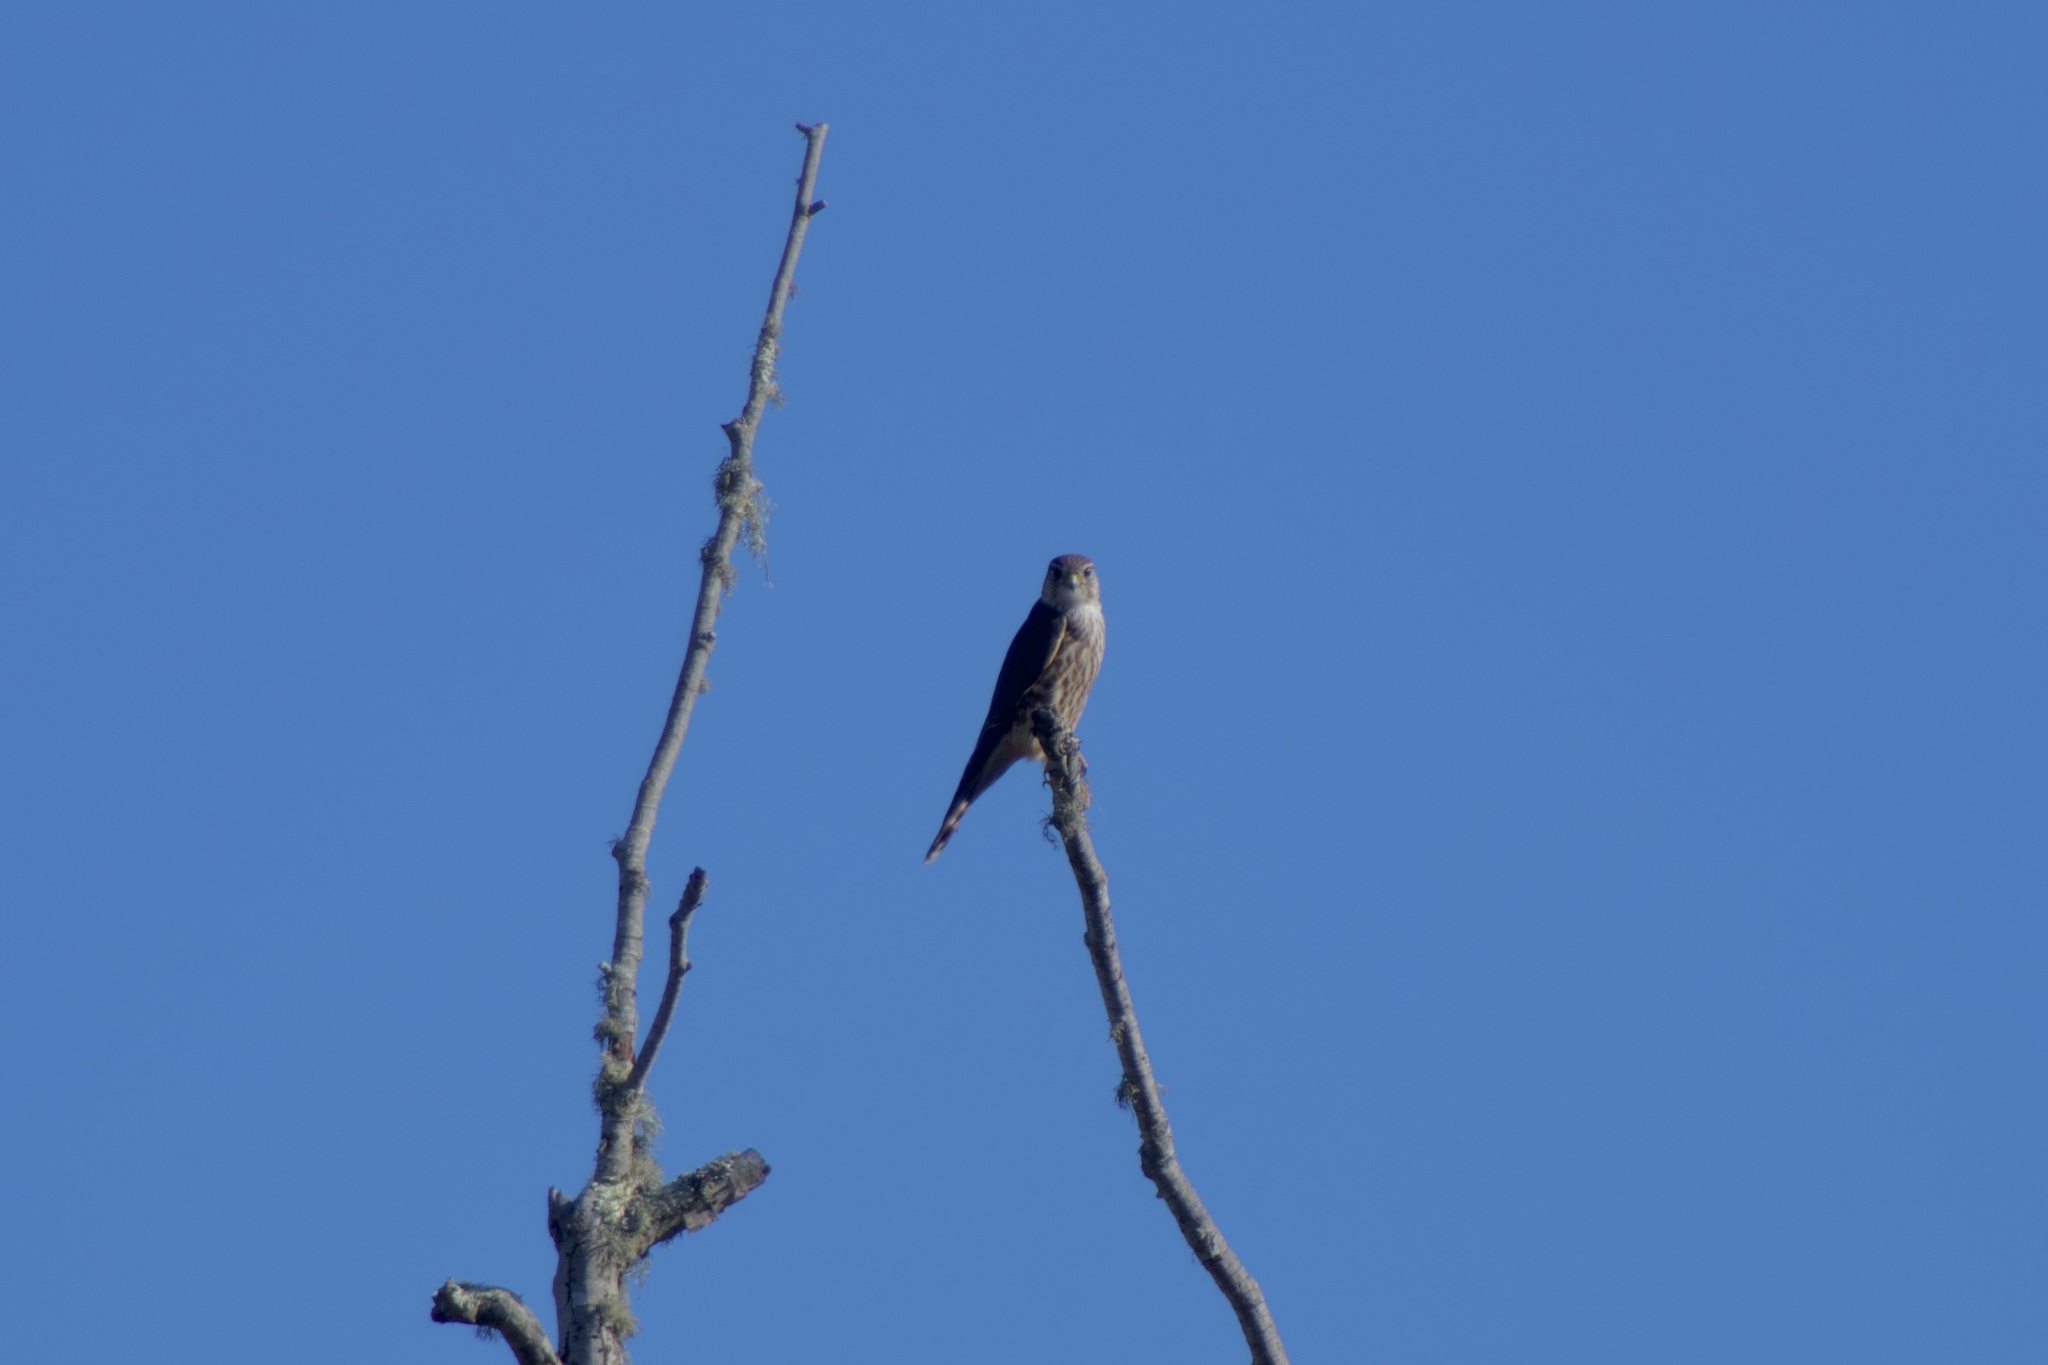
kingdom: Animalia
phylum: Chordata
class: Aves
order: Falconiformes
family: Falconidae
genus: Falco
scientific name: Falco columbarius
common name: Merlin
